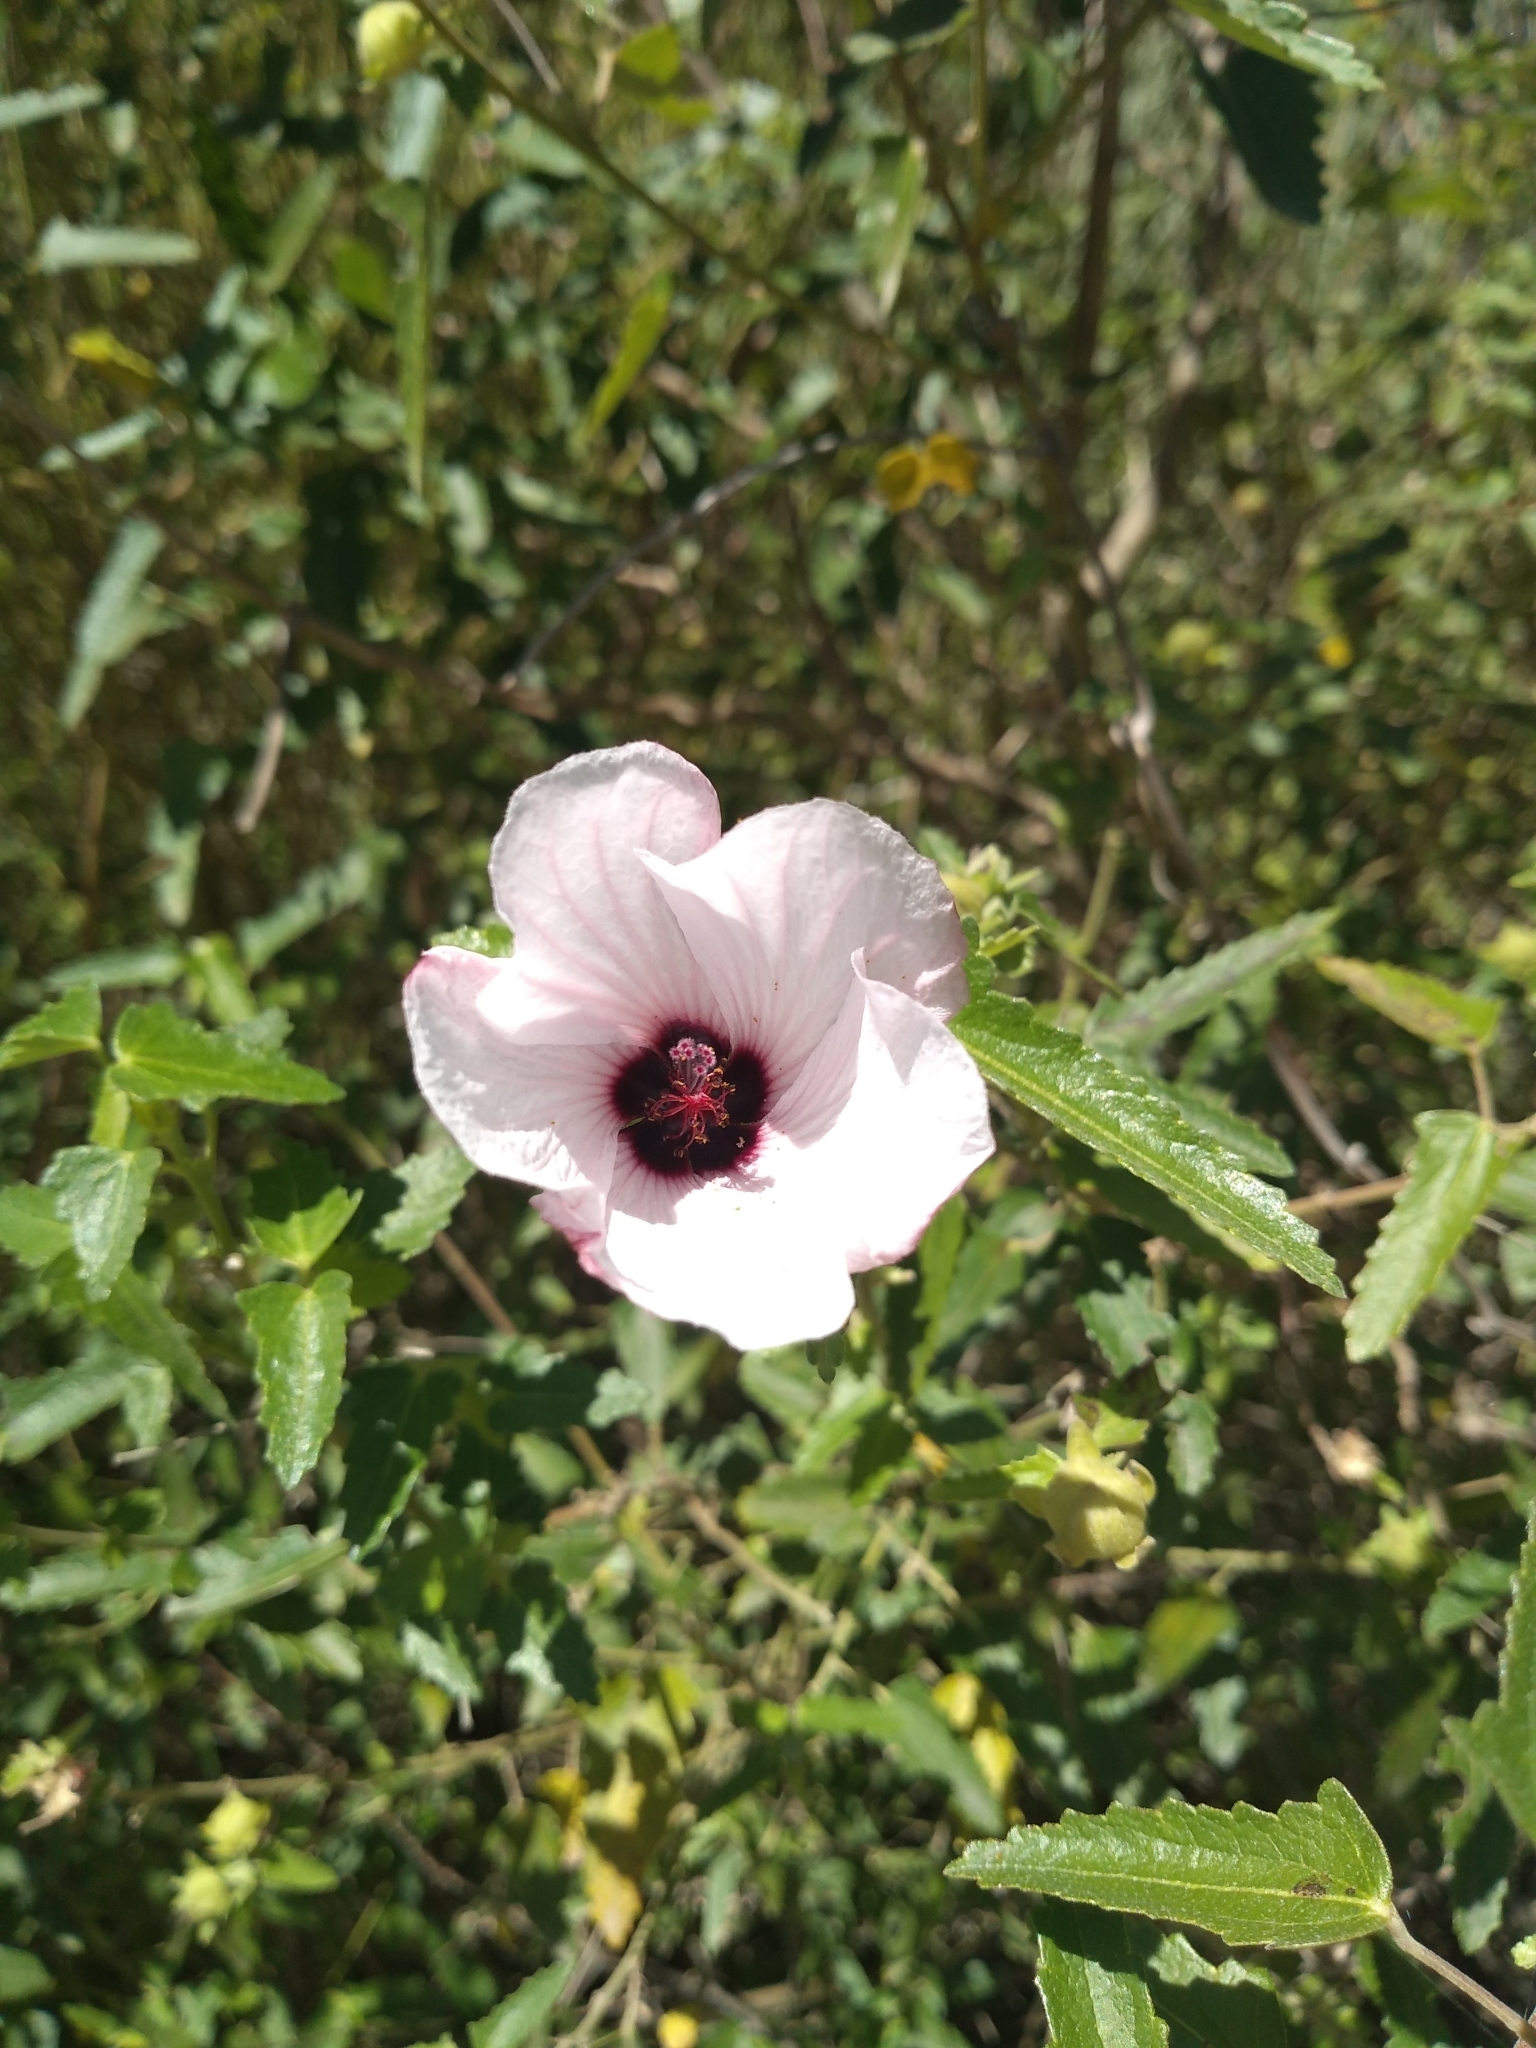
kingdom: Plantae
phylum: Tracheophyta
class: Magnoliopsida
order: Malvales
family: Malvaceae
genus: Pavonia
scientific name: Pavonia hastata
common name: Spearleaf swampmallow
